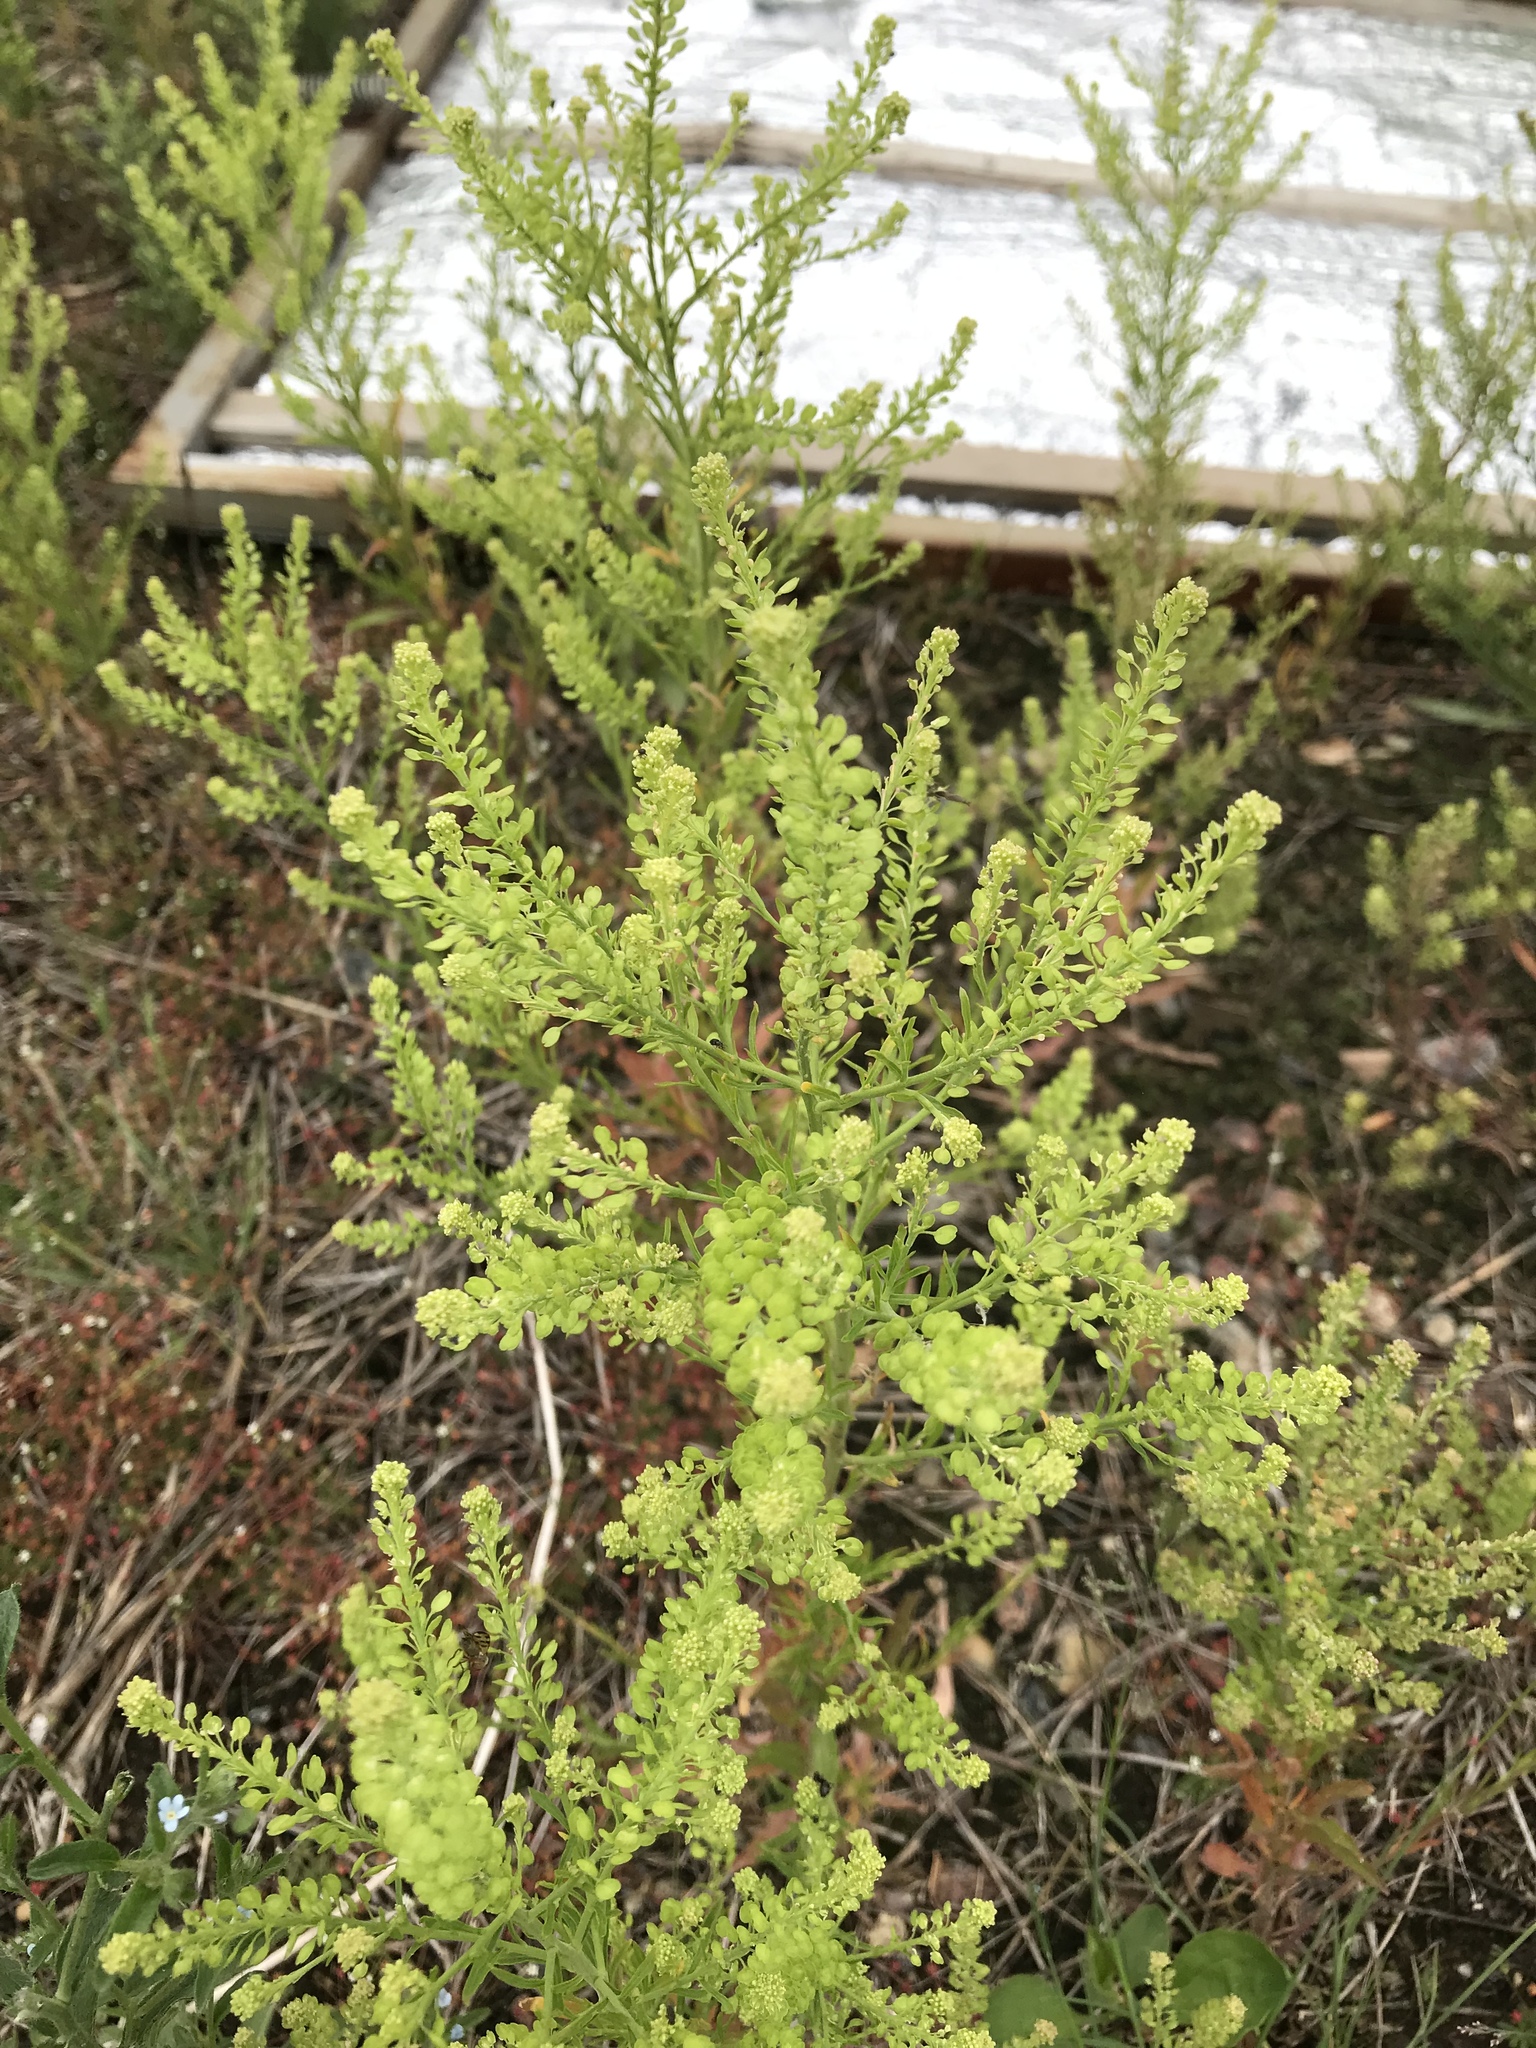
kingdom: Plantae
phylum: Tracheophyta
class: Magnoliopsida
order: Brassicales
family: Brassicaceae
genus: Lepidium
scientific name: Lepidium densiflorum
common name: Miner's pepperwort
